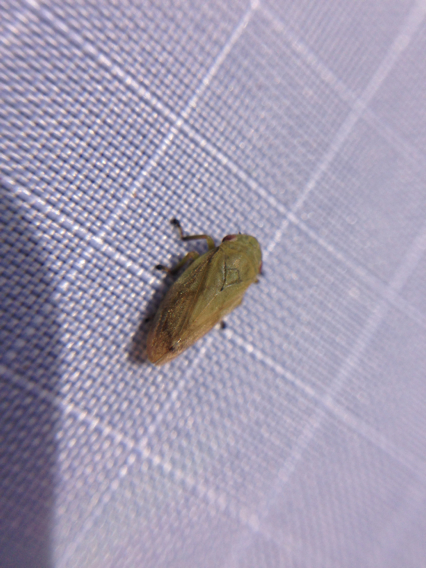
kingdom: Animalia
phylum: Arthropoda
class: Insecta
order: Hemiptera
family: Aphrophoridae
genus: Philaenus
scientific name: Philaenus spumarius
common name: Meadow spittlebug
